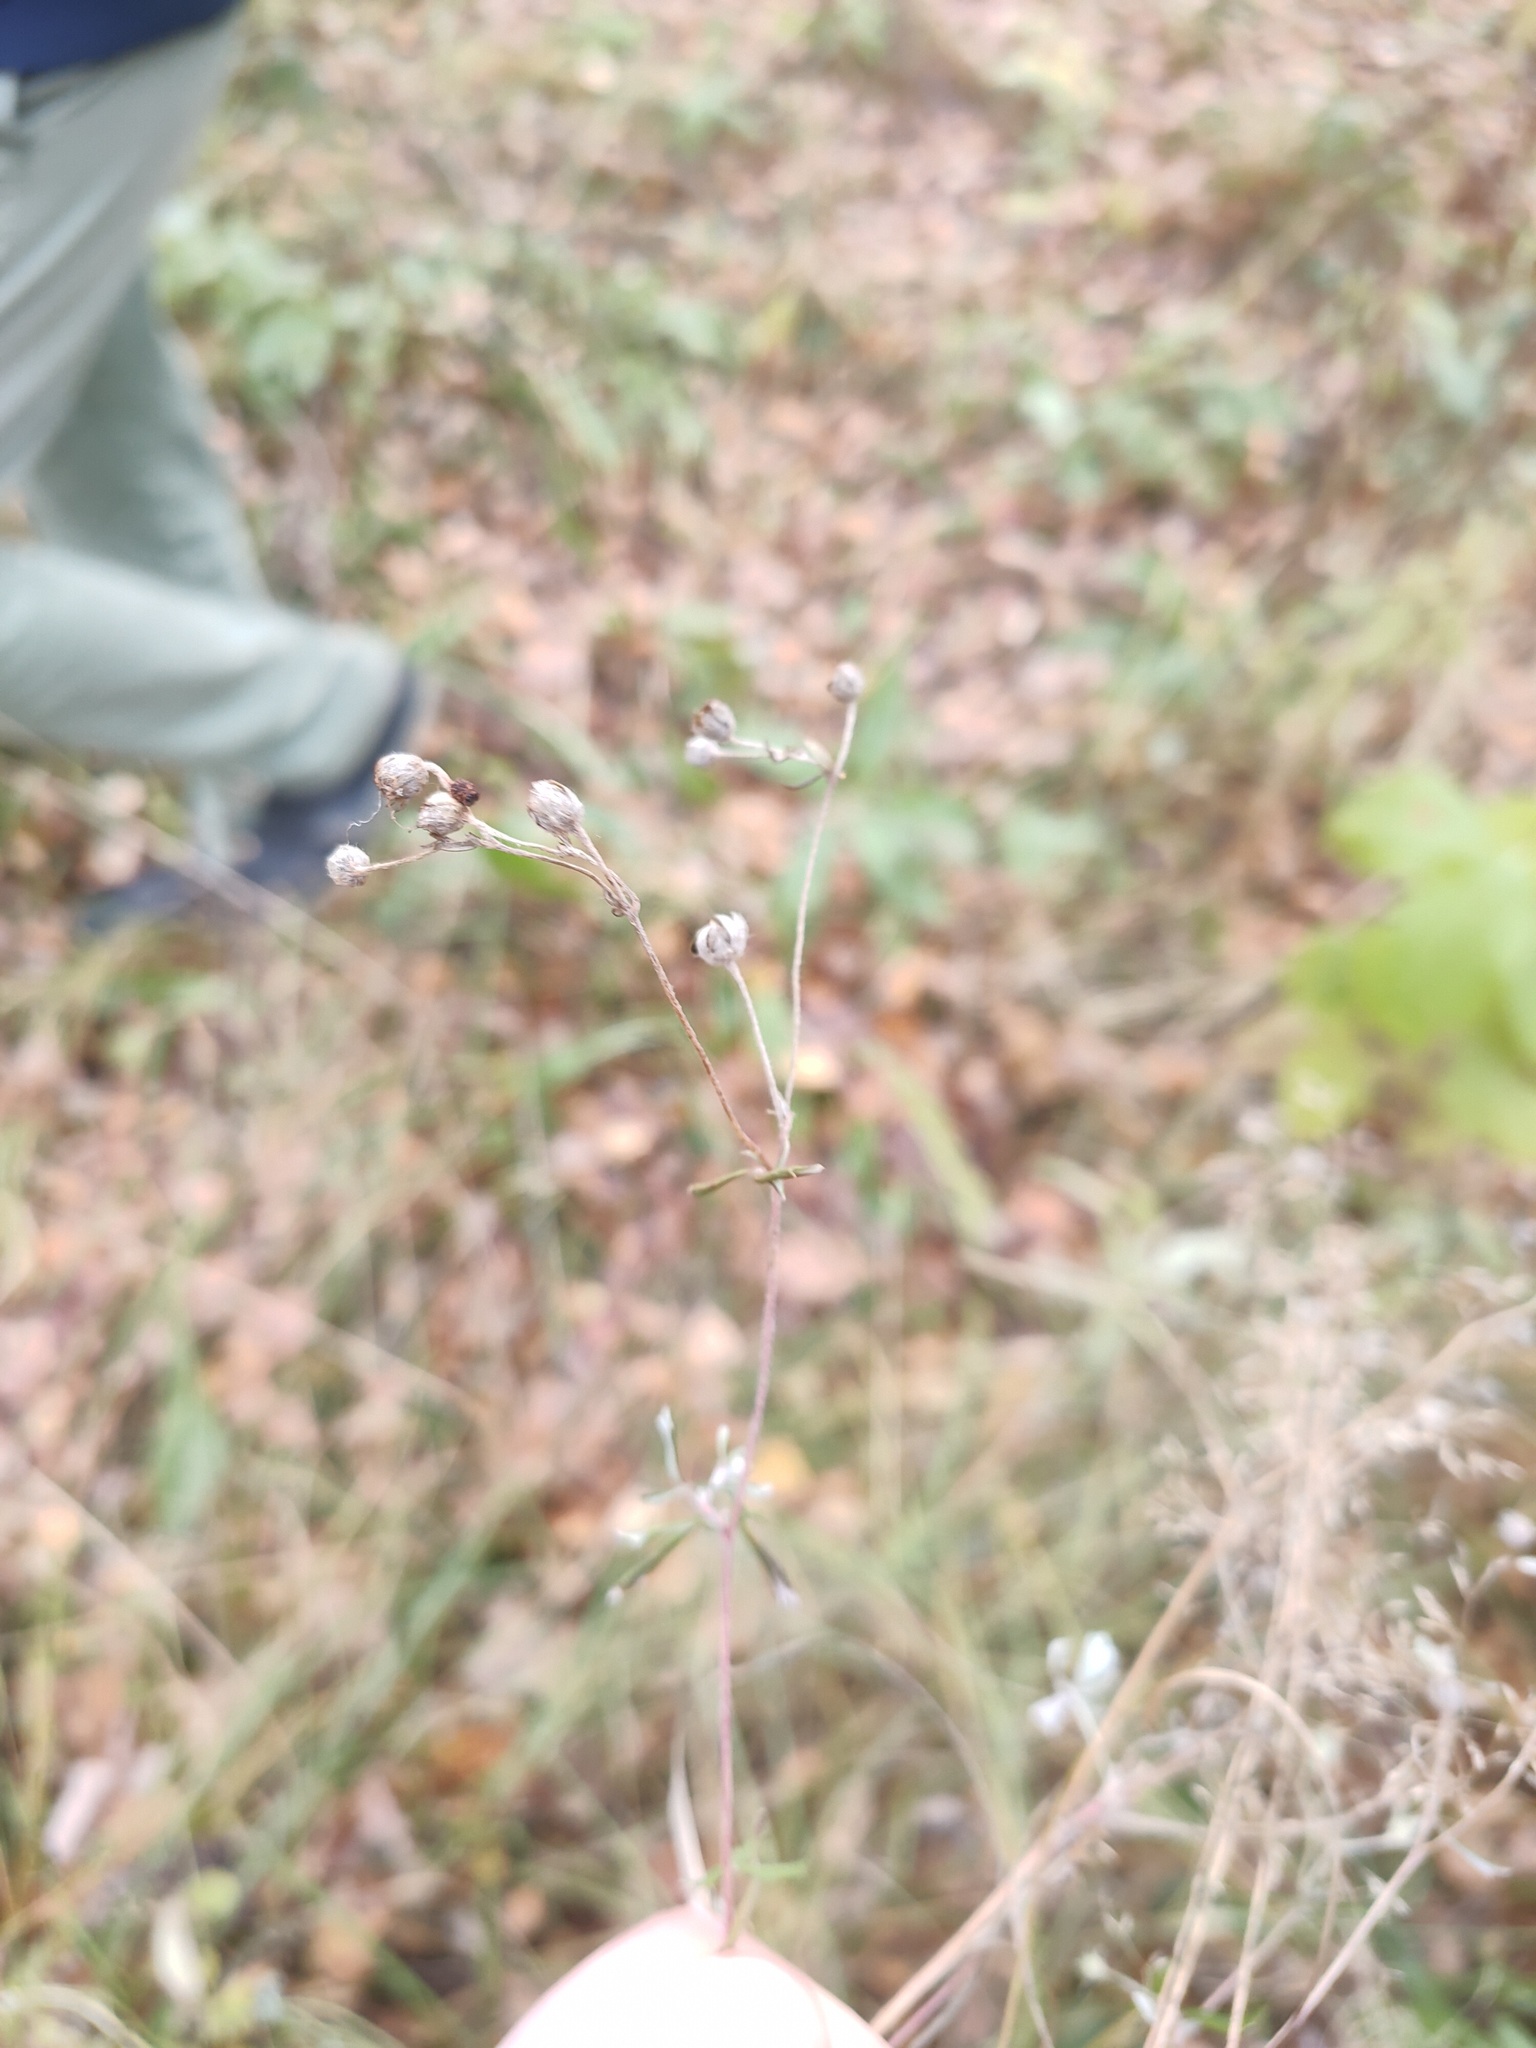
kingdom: Plantae
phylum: Tracheophyta
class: Magnoliopsida
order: Rosales
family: Rosaceae
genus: Potentilla
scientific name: Potentilla argentea
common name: Hoary cinquefoil
